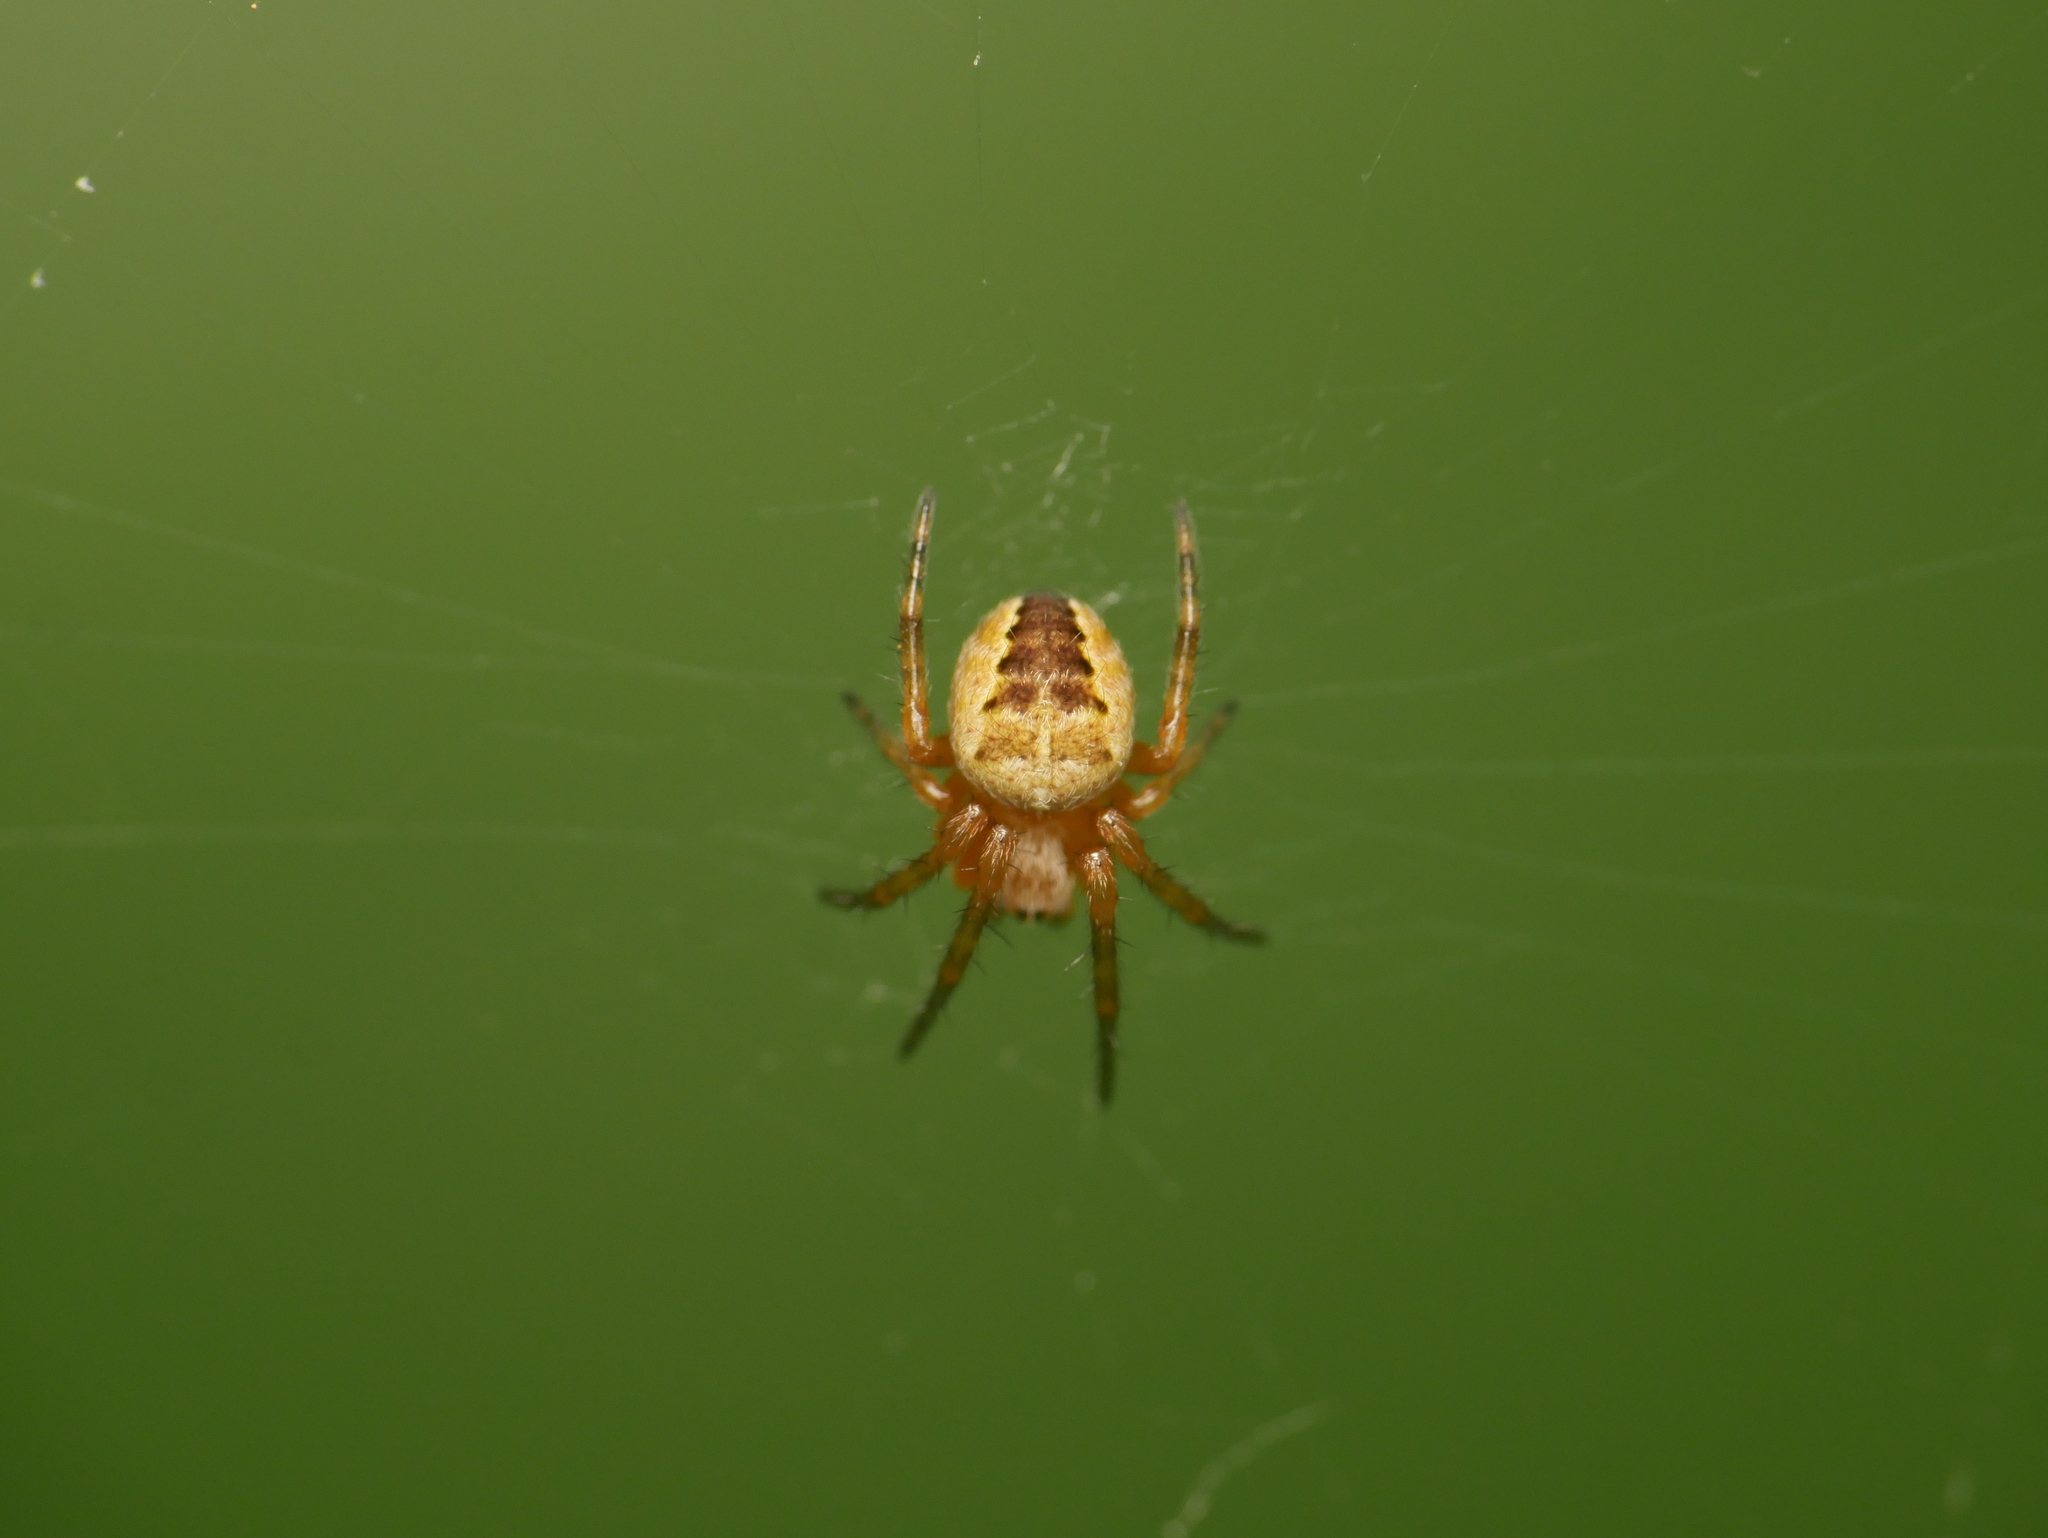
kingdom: Animalia
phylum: Arthropoda
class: Arachnida
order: Araneae
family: Araneidae
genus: Araneus
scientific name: Araneus diadematus
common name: Cross orbweaver
